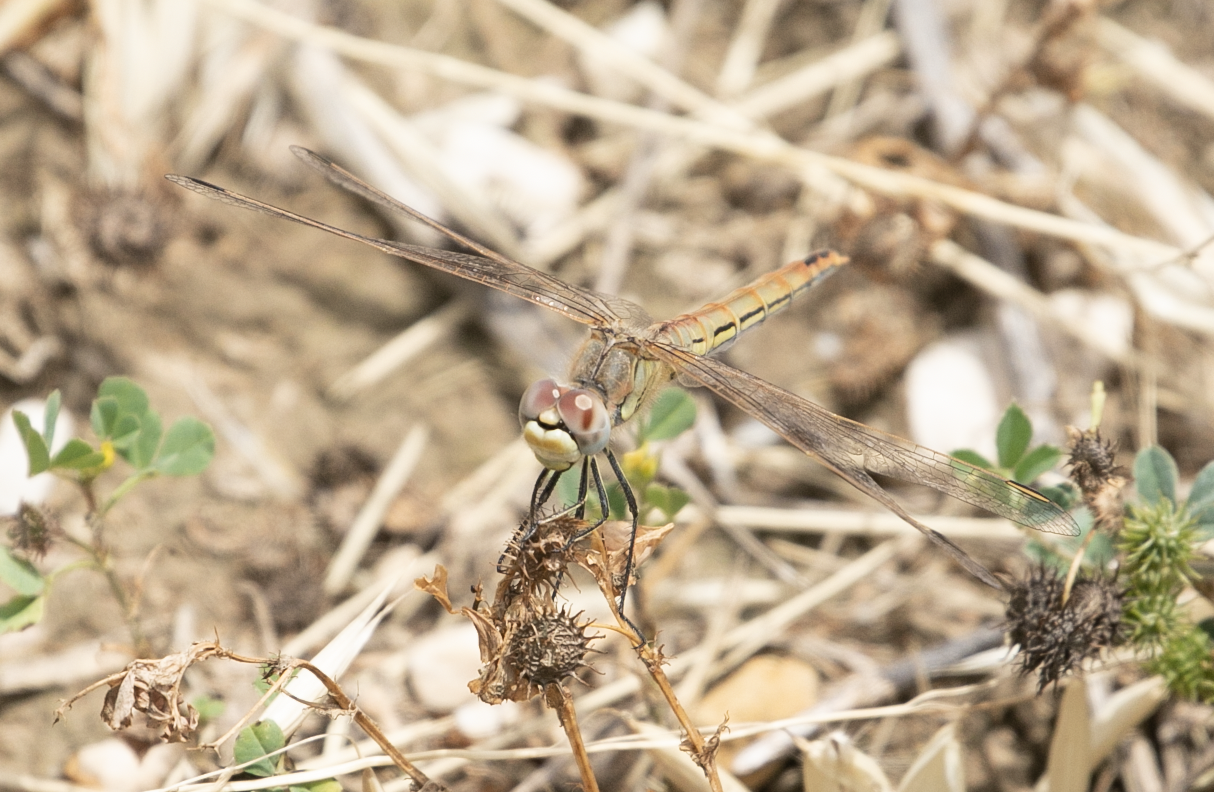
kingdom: Animalia
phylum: Arthropoda
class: Insecta
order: Odonata
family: Libellulidae
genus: Sympetrum
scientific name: Sympetrum fonscolombii
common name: Red-veined darter
